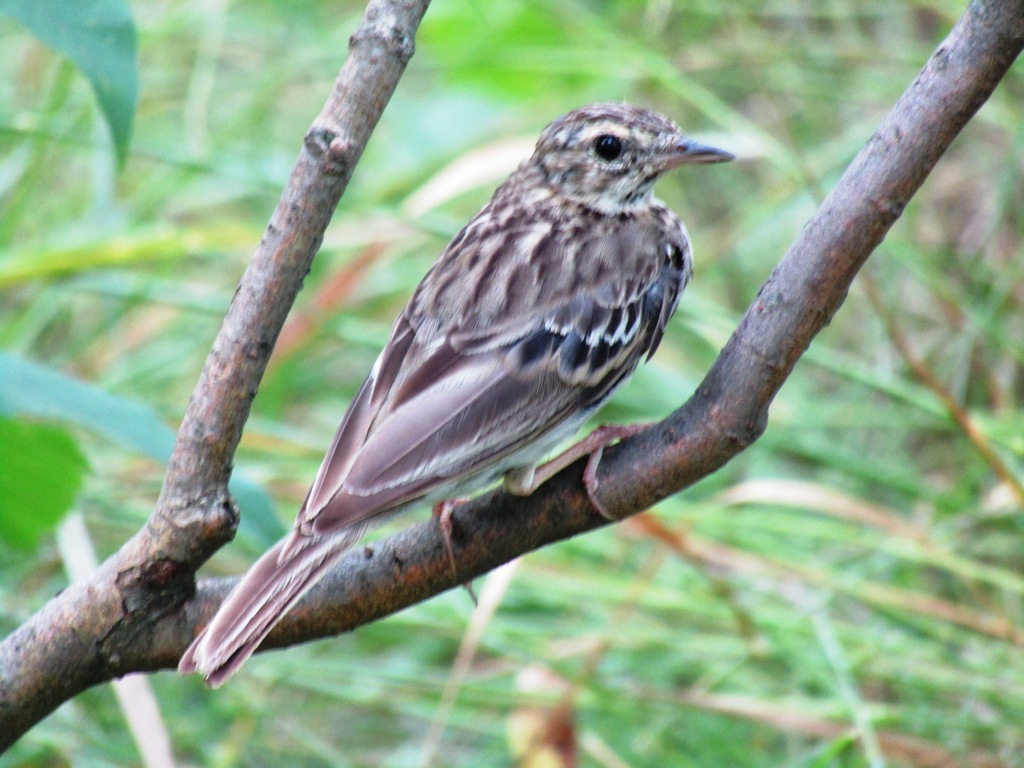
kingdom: Animalia
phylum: Chordata
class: Aves
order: Passeriformes
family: Motacillidae
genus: Anthus
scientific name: Anthus trivialis
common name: Tree pipit
